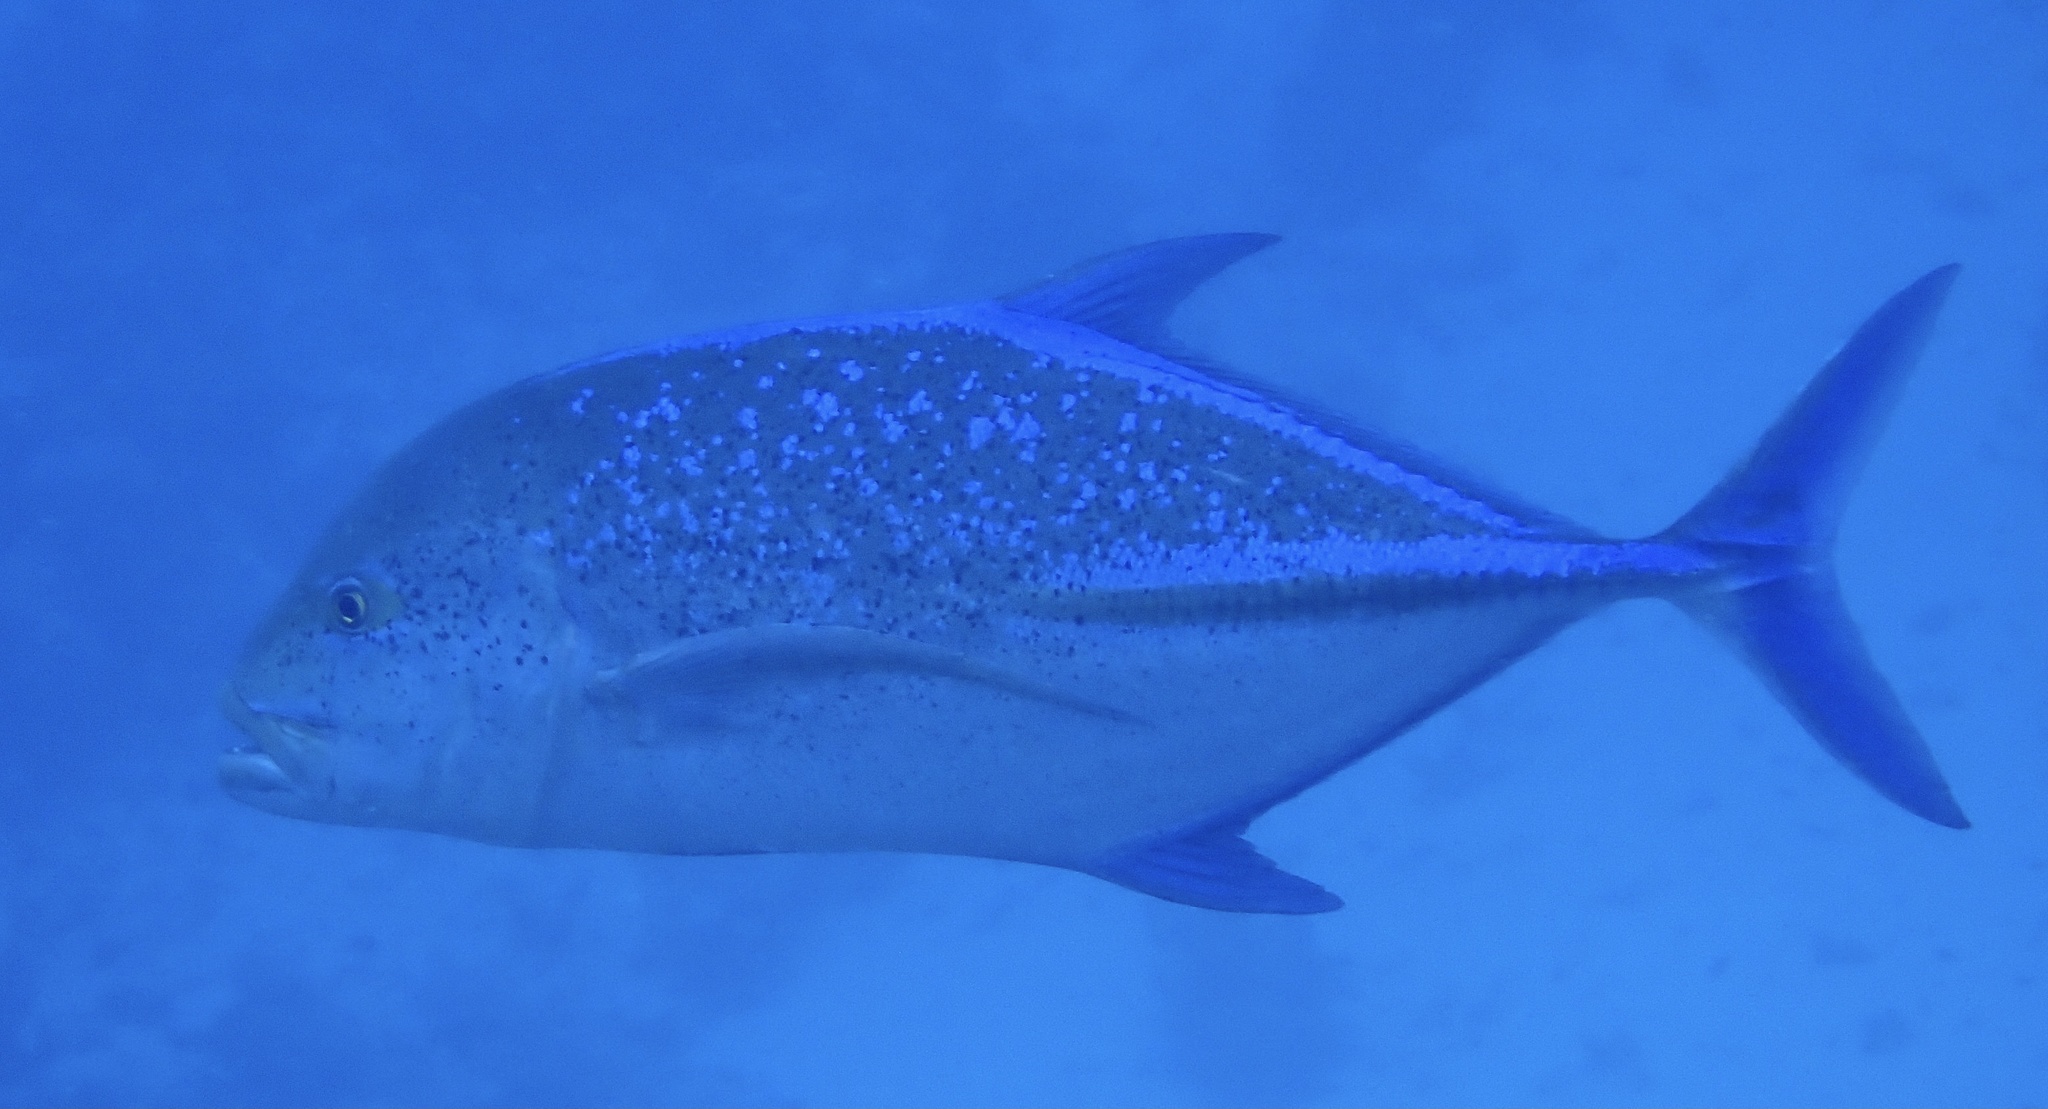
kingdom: Animalia
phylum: Chordata
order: Perciformes
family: Carangidae
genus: Caranx
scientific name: Caranx melampygus
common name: Bluefin trevally
